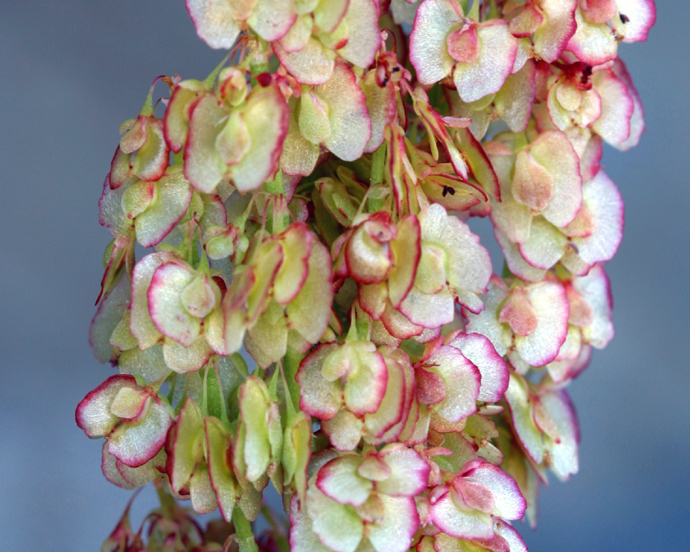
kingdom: Plantae
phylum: Tracheophyta
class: Magnoliopsida
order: Caryophyllales
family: Polygonaceae
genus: Oxyria
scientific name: Oxyria digyna
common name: Alpine mountain-sorrel
